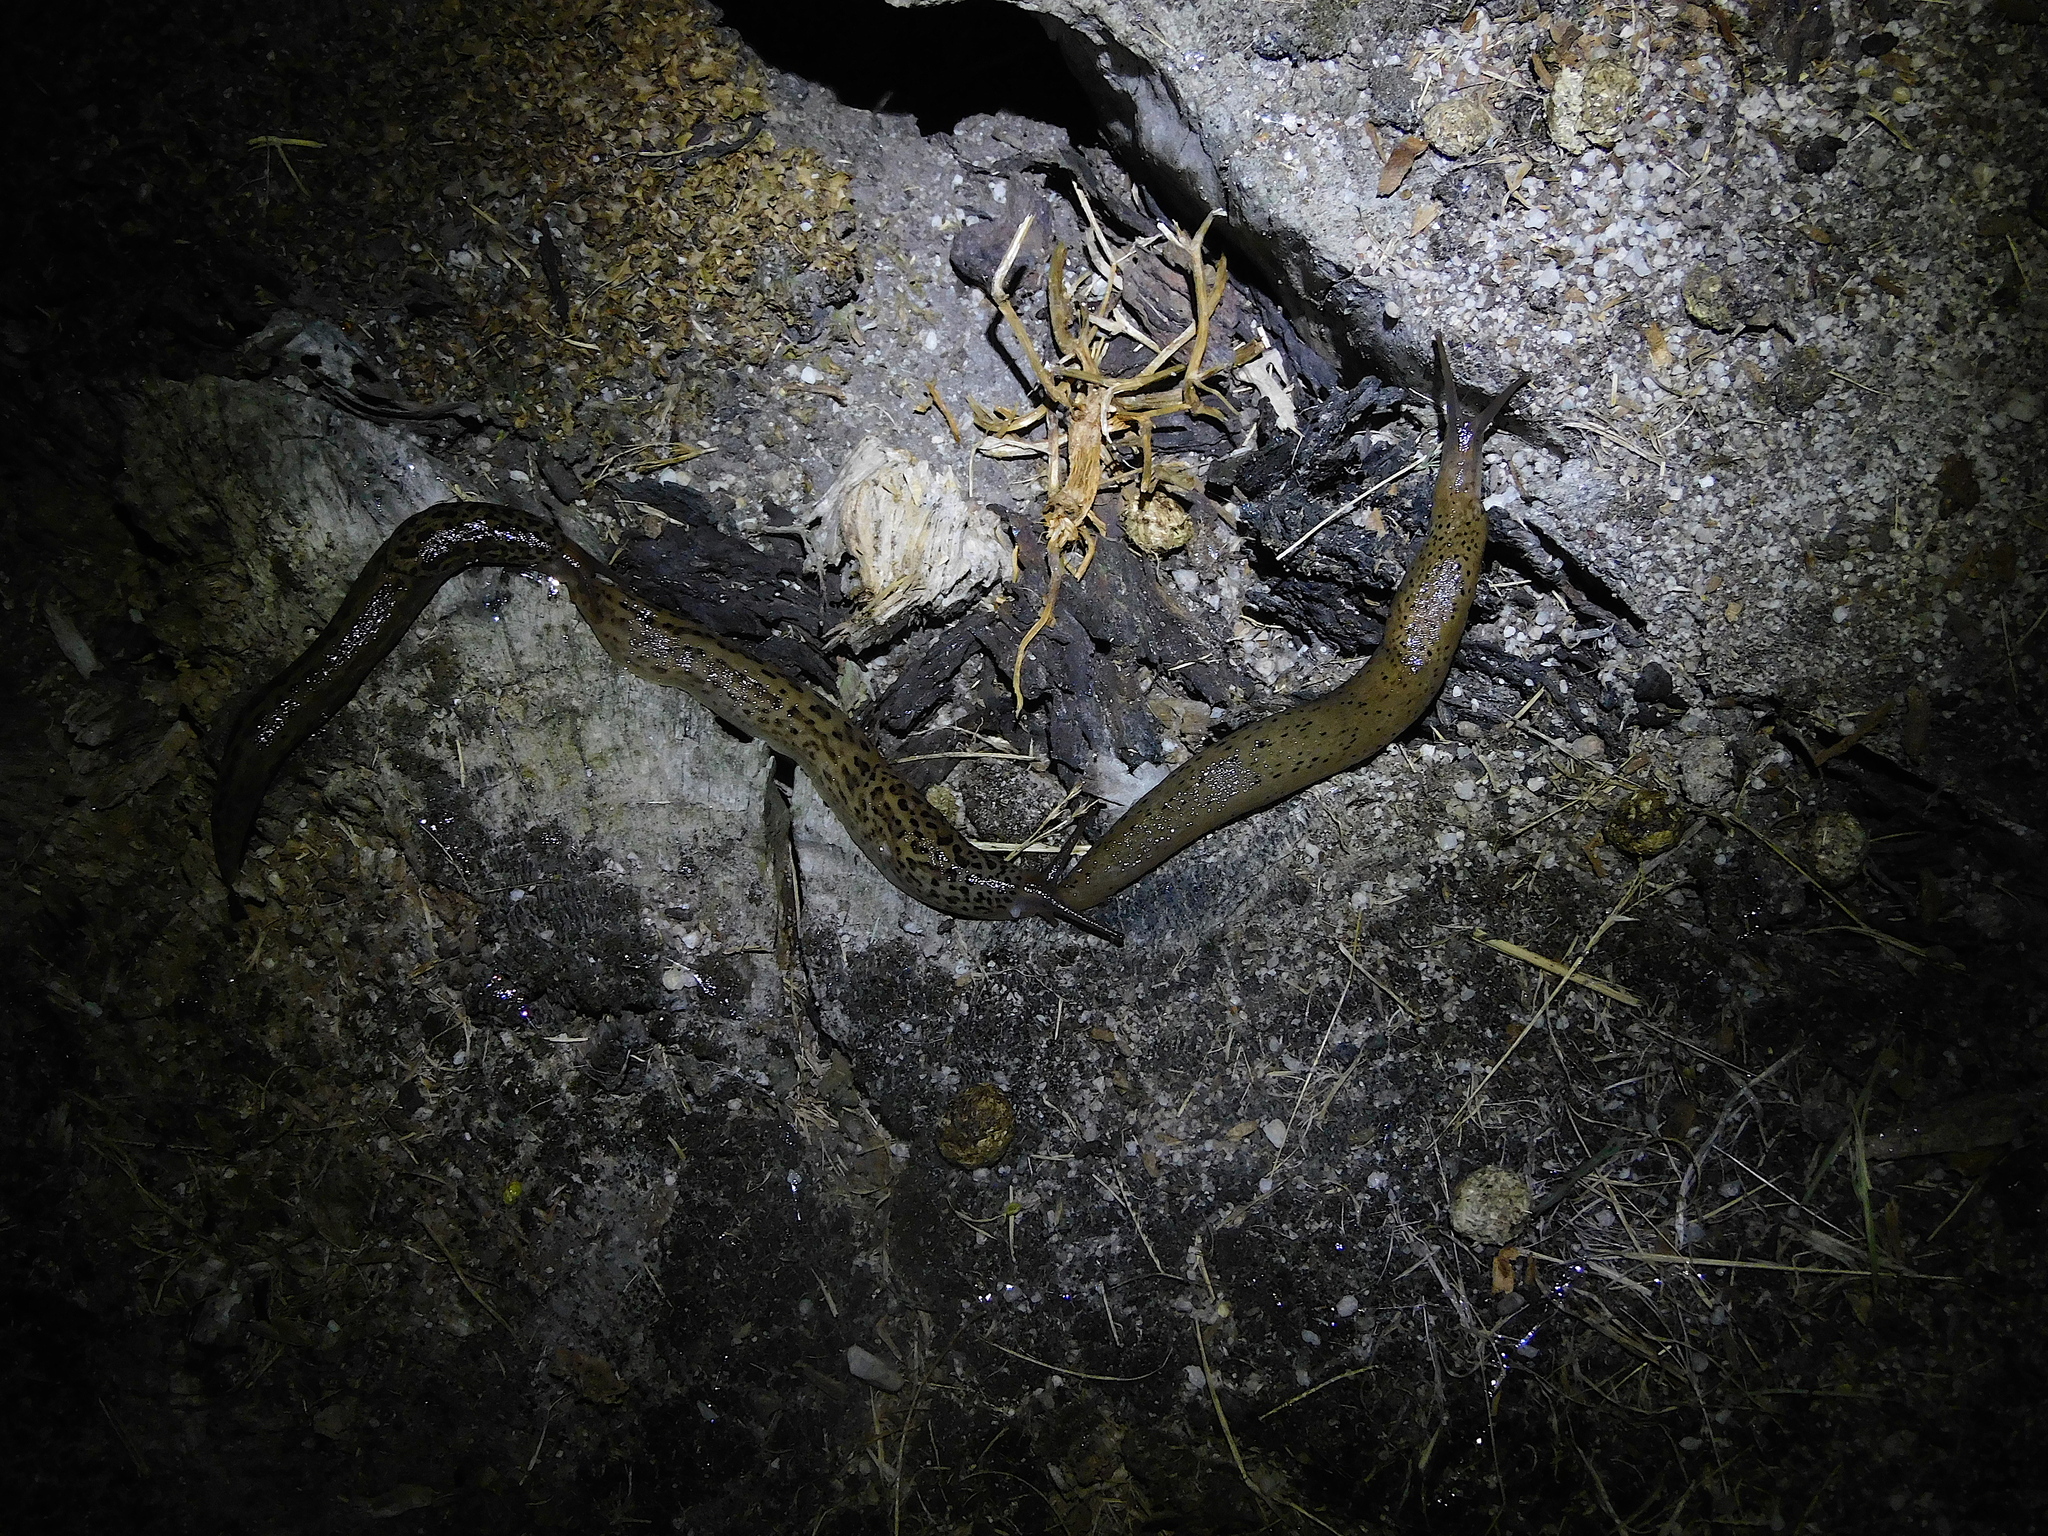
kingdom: Animalia
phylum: Mollusca
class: Gastropoda
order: Stylommatophora
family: Limacidae
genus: Limax
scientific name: Limax maximus
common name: Great grey slug
